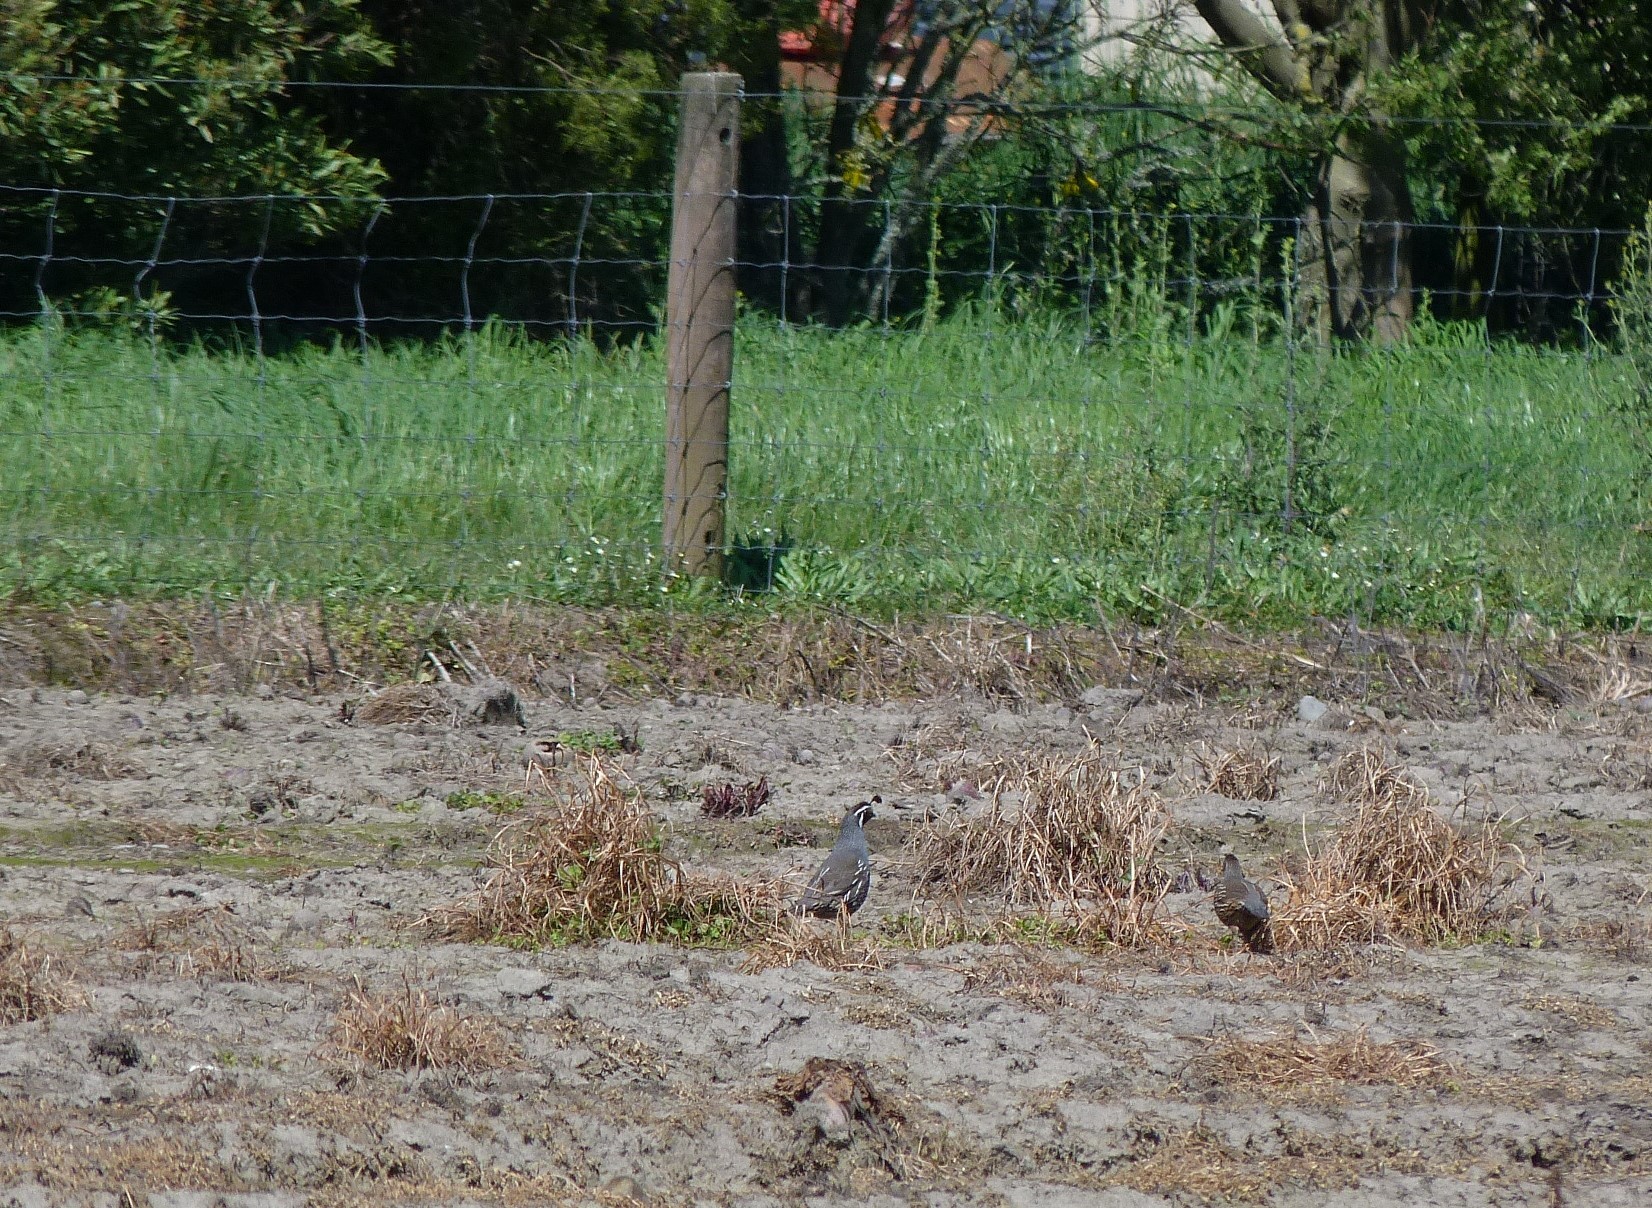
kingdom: Animalia
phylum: Chordata
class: Aves
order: Galliformes
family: Odontophoridae
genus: Callipepla
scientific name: Callipepla californica
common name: California quail
